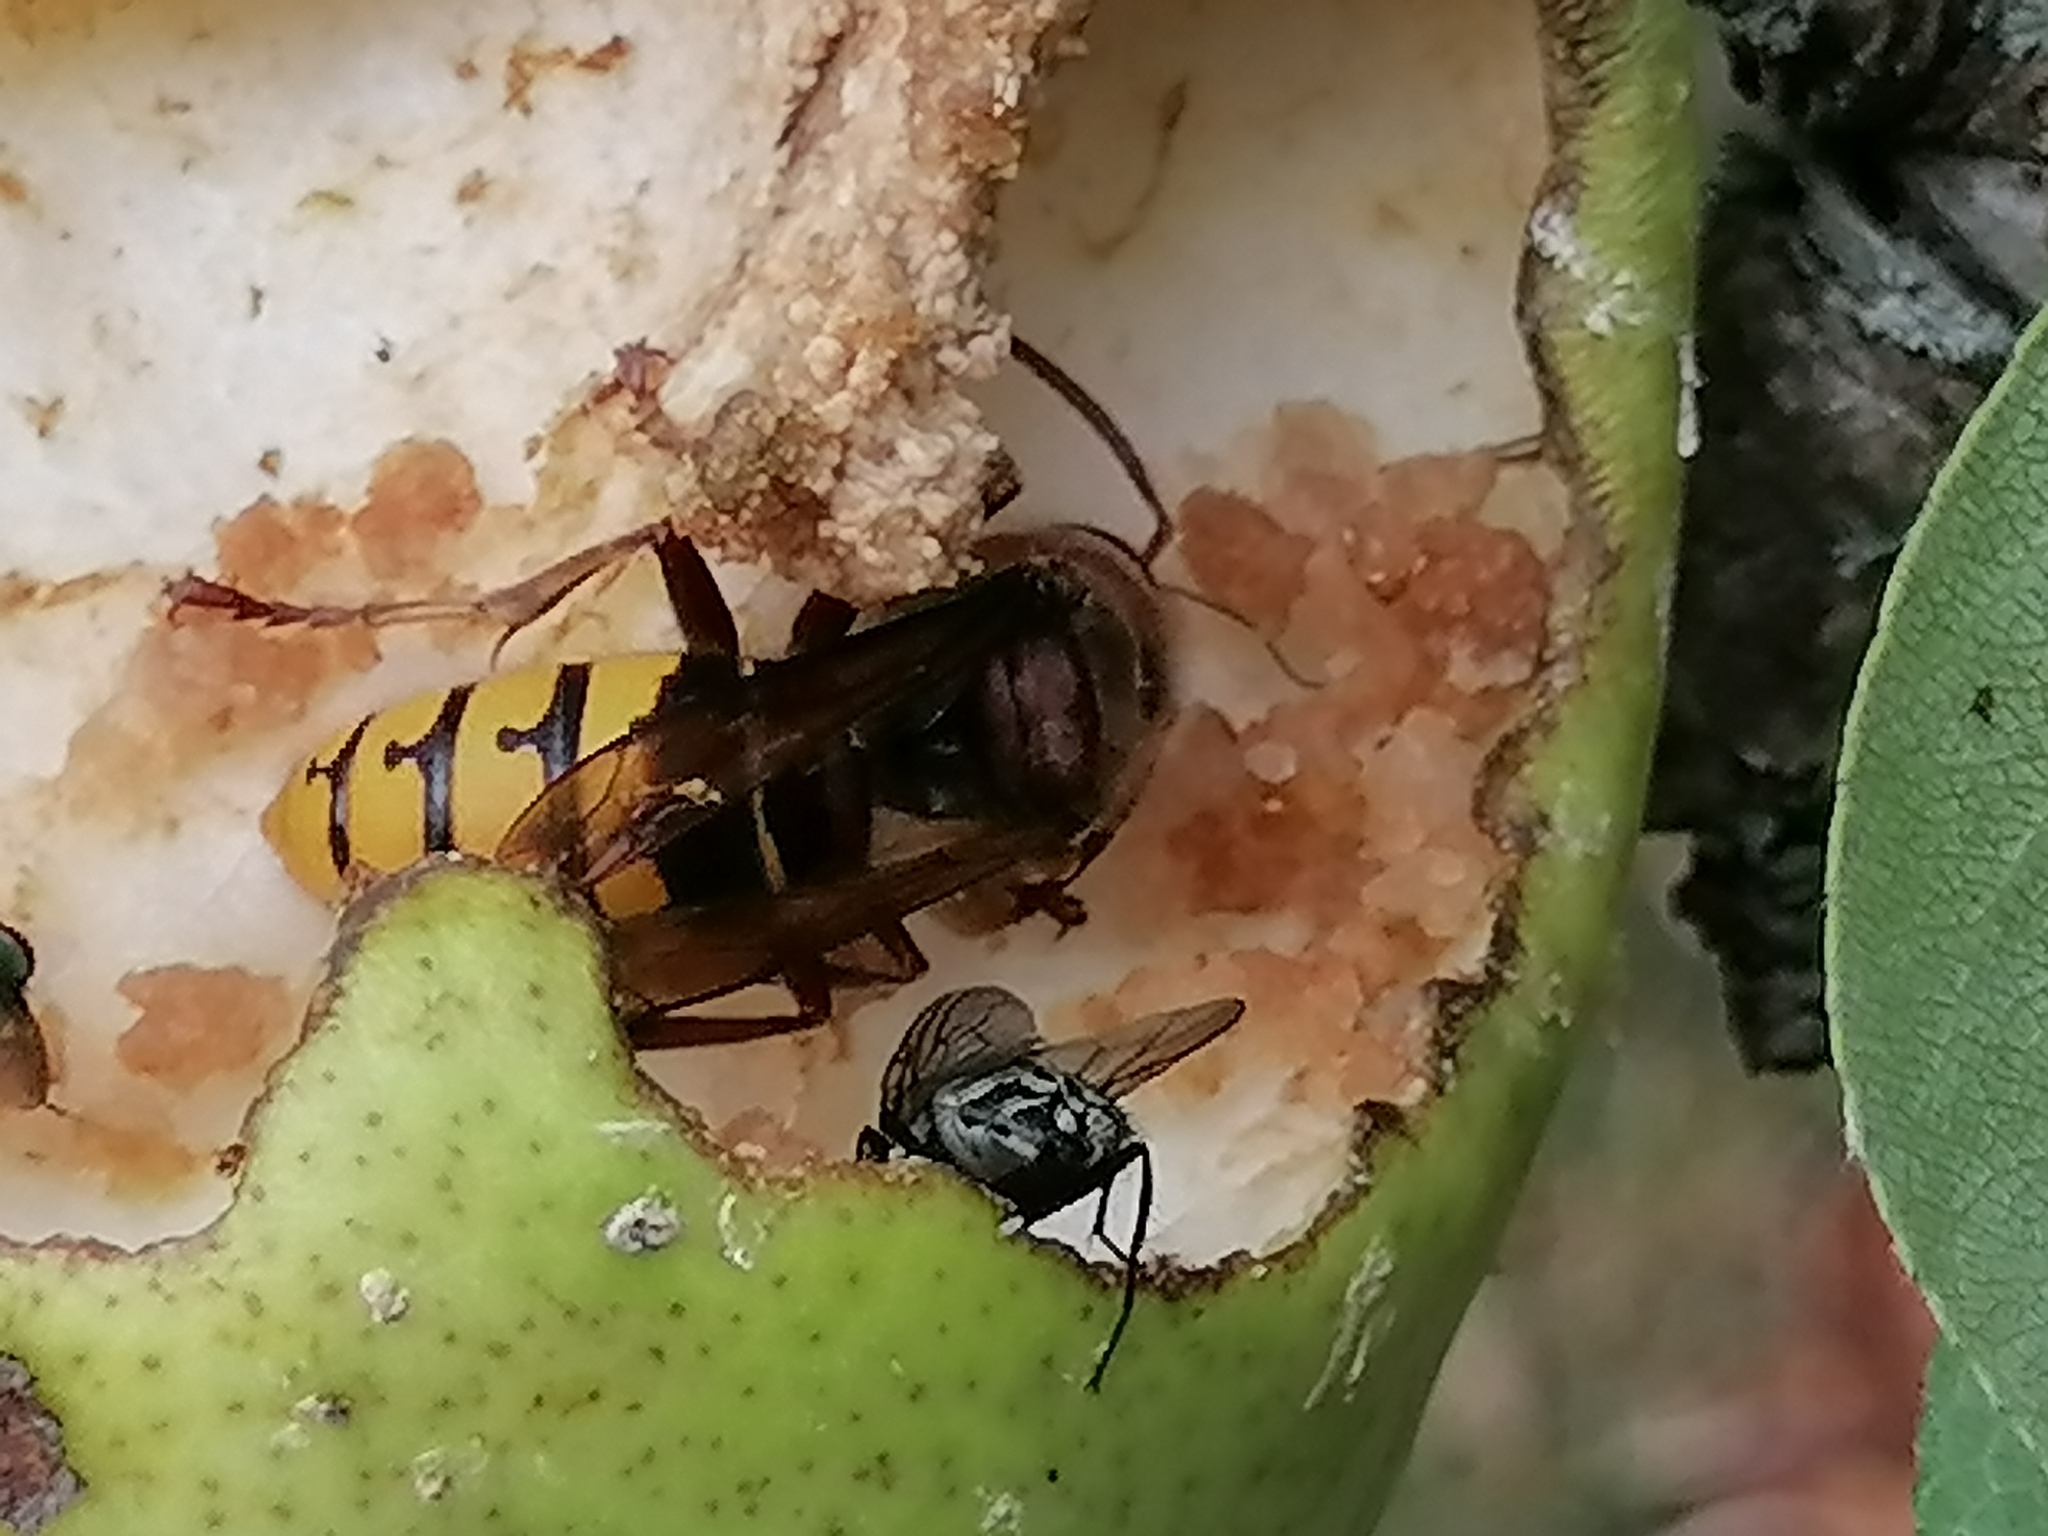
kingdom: Animalia
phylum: Arthropoda
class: Insecta
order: Hymenoptera
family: Vespidae
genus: Vespa
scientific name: Vespa crabro
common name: Hornet
